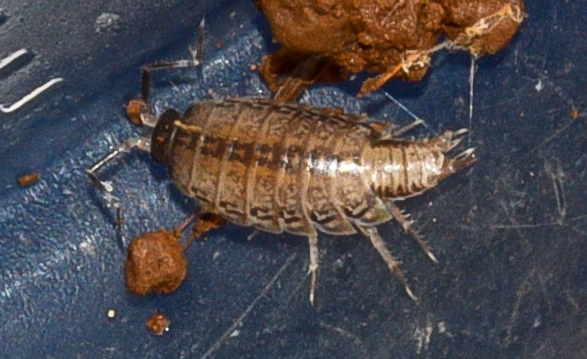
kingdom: Animalia
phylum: Arthropoda
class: Malacostraca
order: Isopoda
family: Philosciidae
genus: Burmoniscus
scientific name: Burmoniscus mauritiensis
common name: Pillbug
